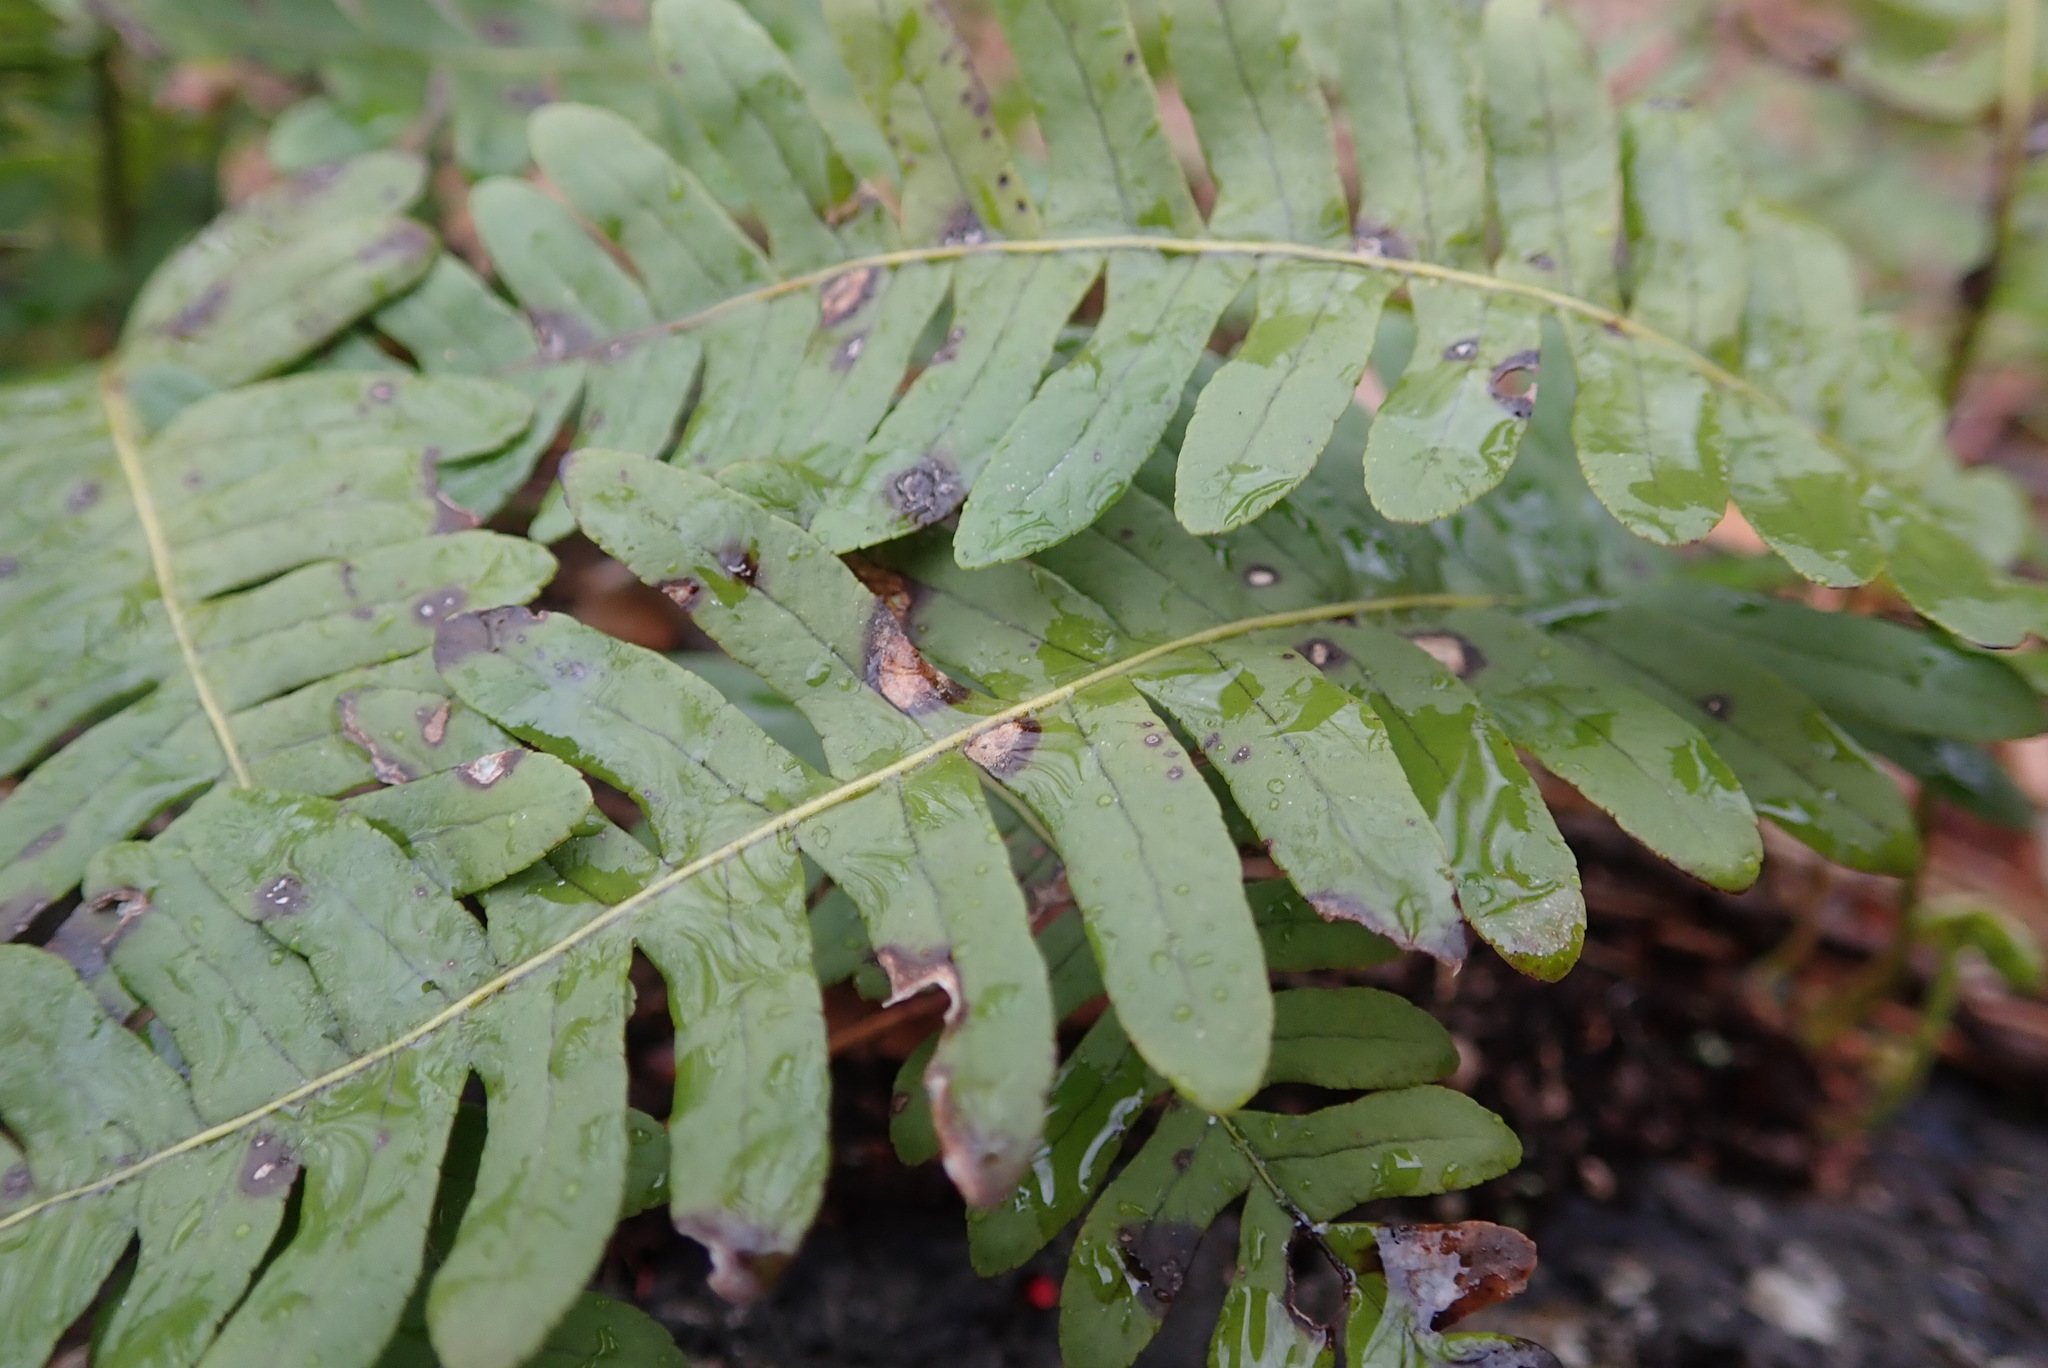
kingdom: Plantae
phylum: Tracheophyta
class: Polypodiopsida
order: Polypodiales
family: Polypodiaceae
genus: Polypodium
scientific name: Polypodium virginianum
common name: American wall fern
